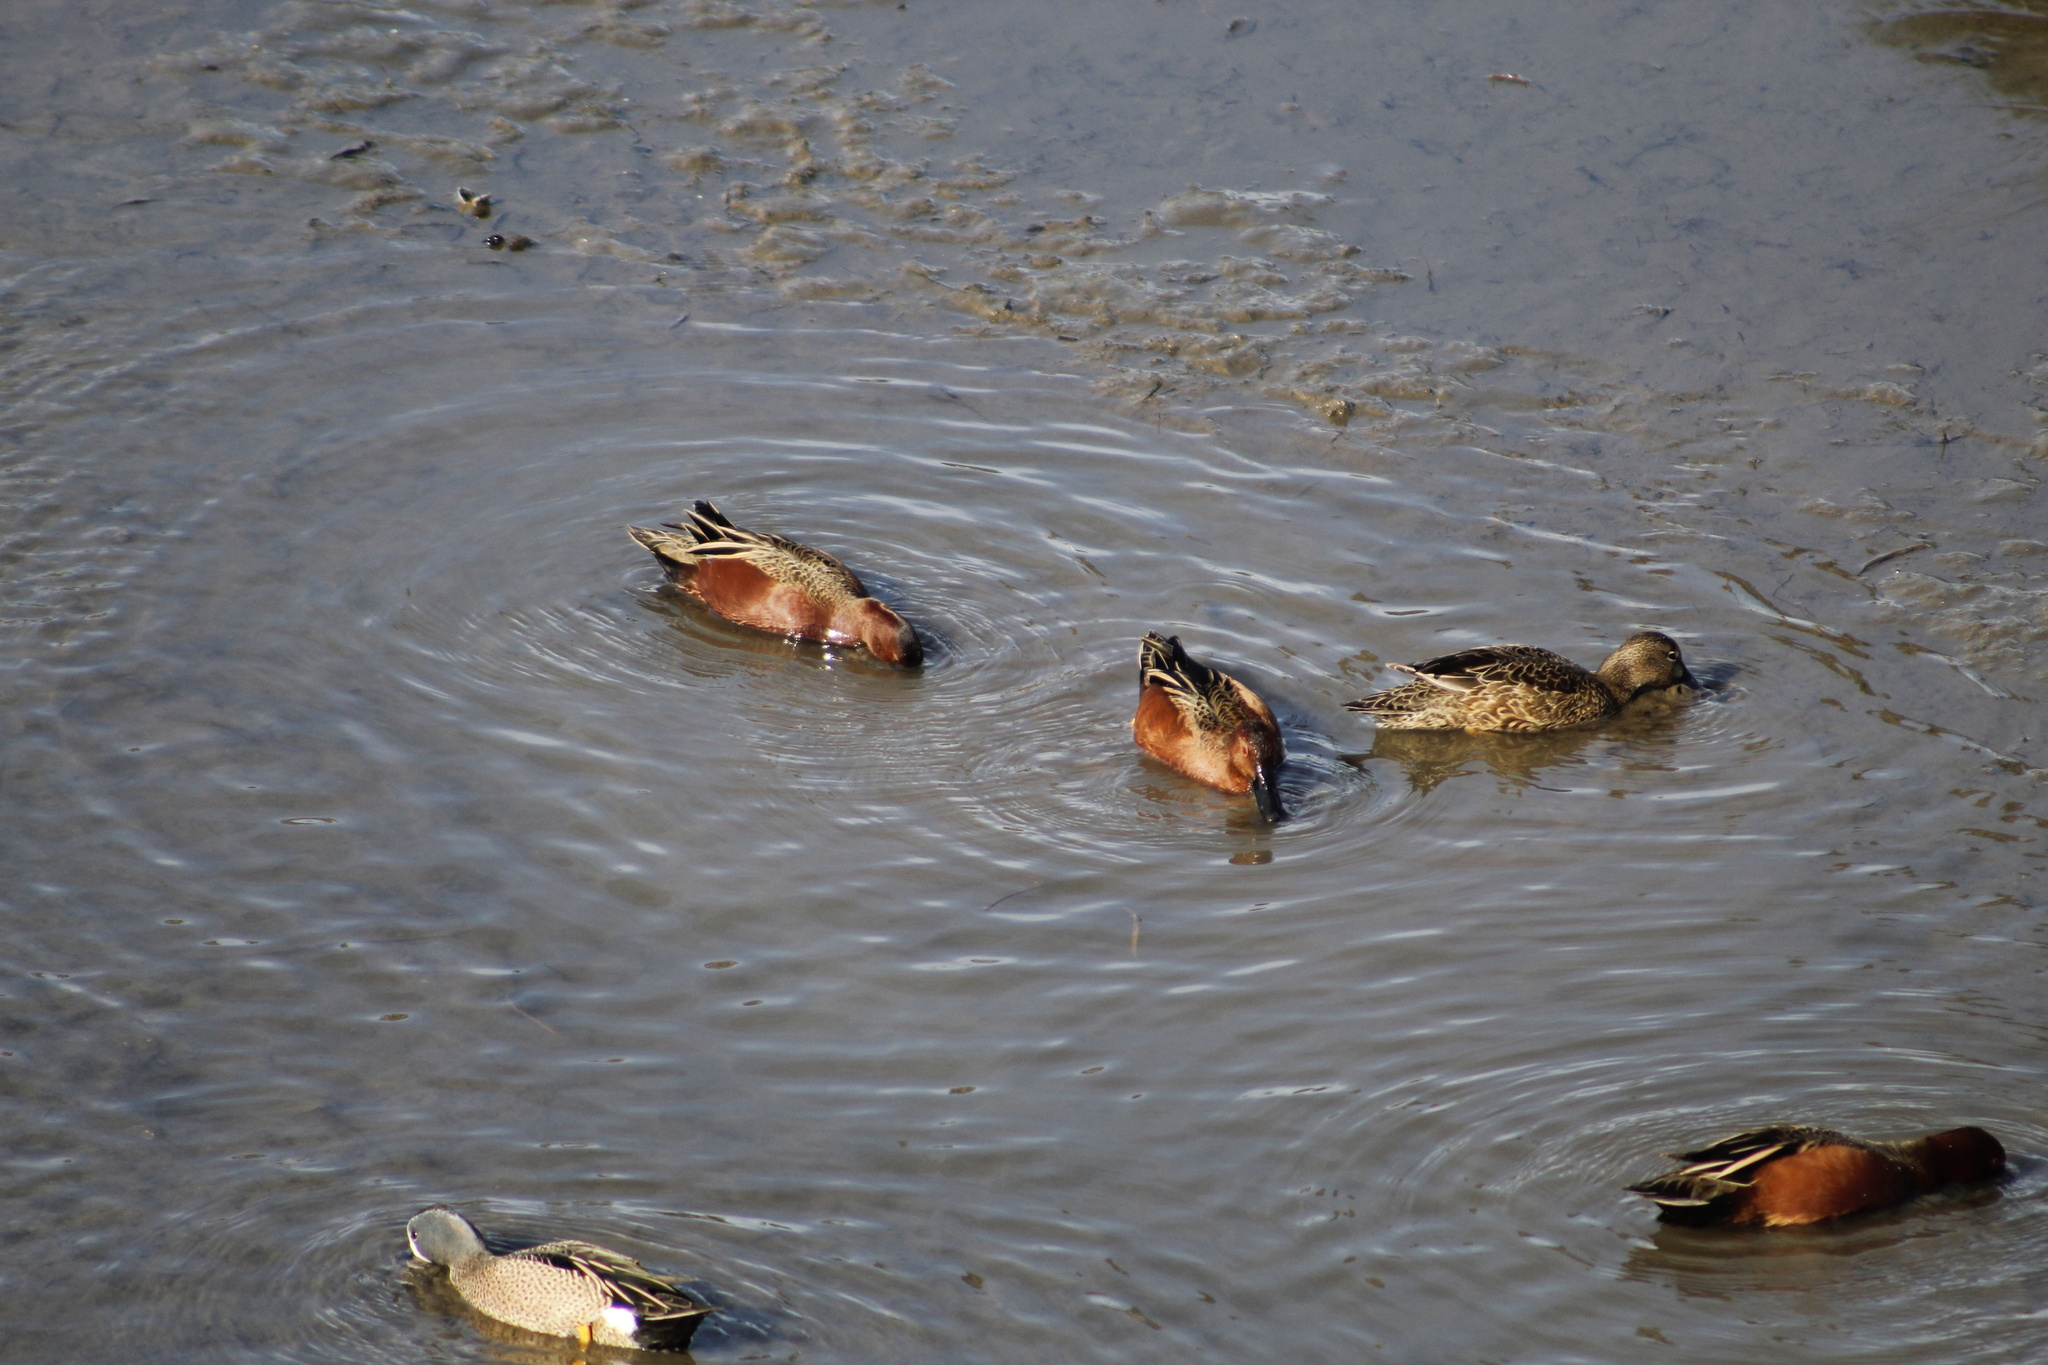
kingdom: Animalia
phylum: Chordata
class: Aves
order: Anseriformes
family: Anatidae
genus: Spatula
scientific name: Spatula cyanoptera
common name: Cinnamon teal
